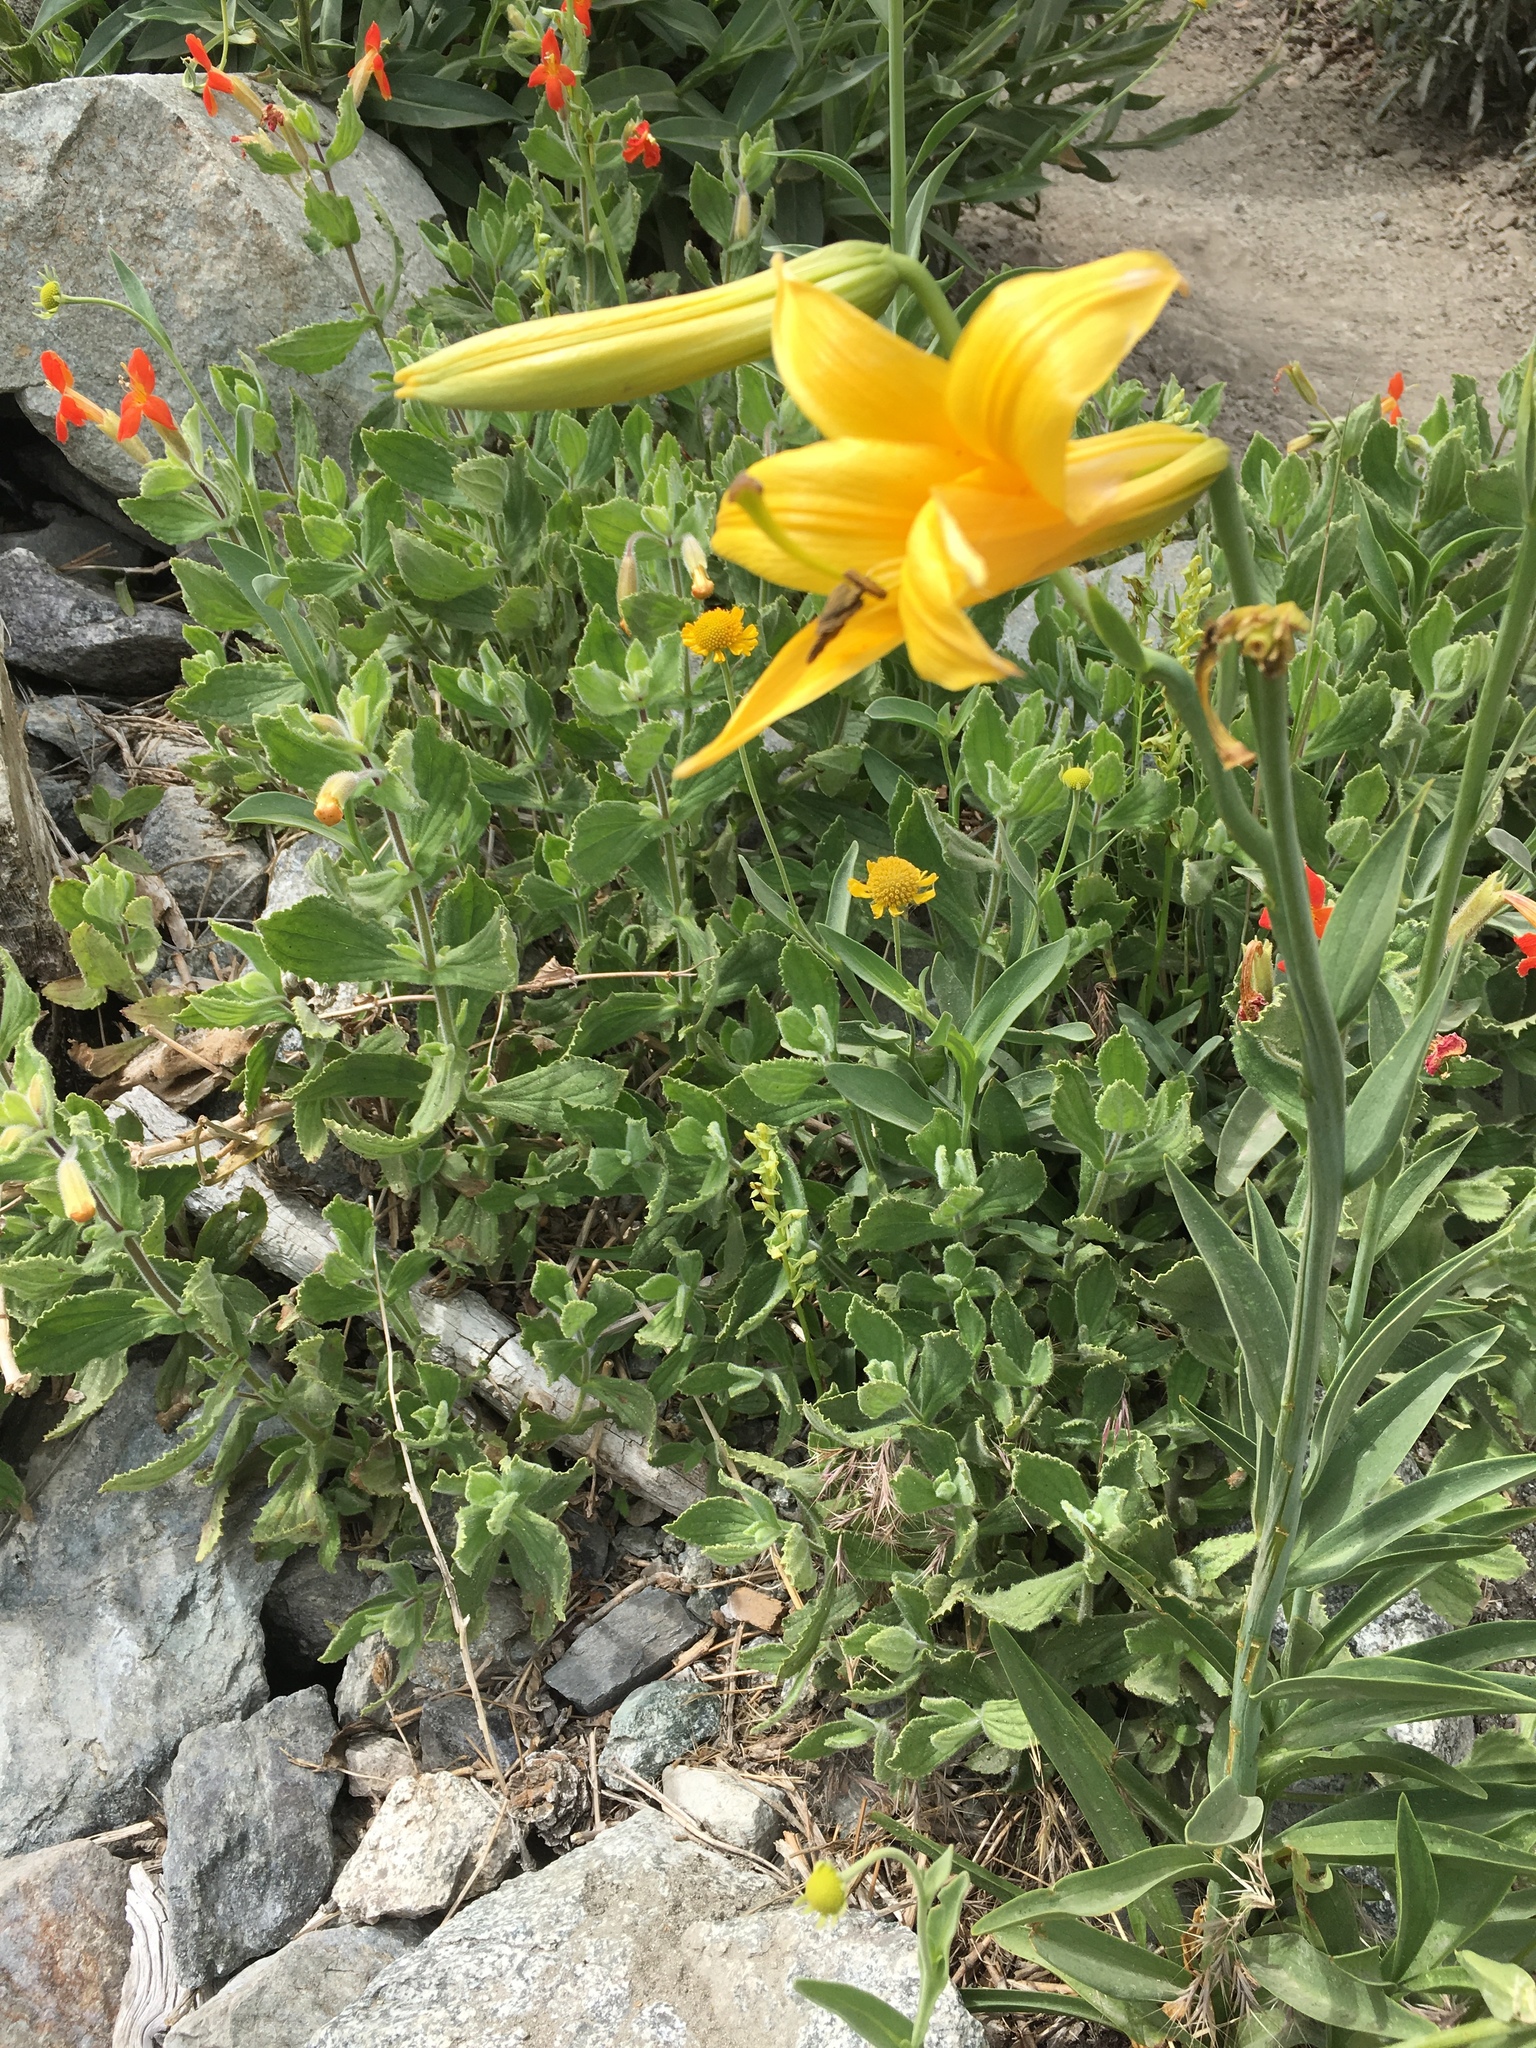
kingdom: Plantae
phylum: Tracheophyta
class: Liliopsida
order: Liliales
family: Liliaceae
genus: Lilium
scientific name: Lilium parryi
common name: Lemon lily
